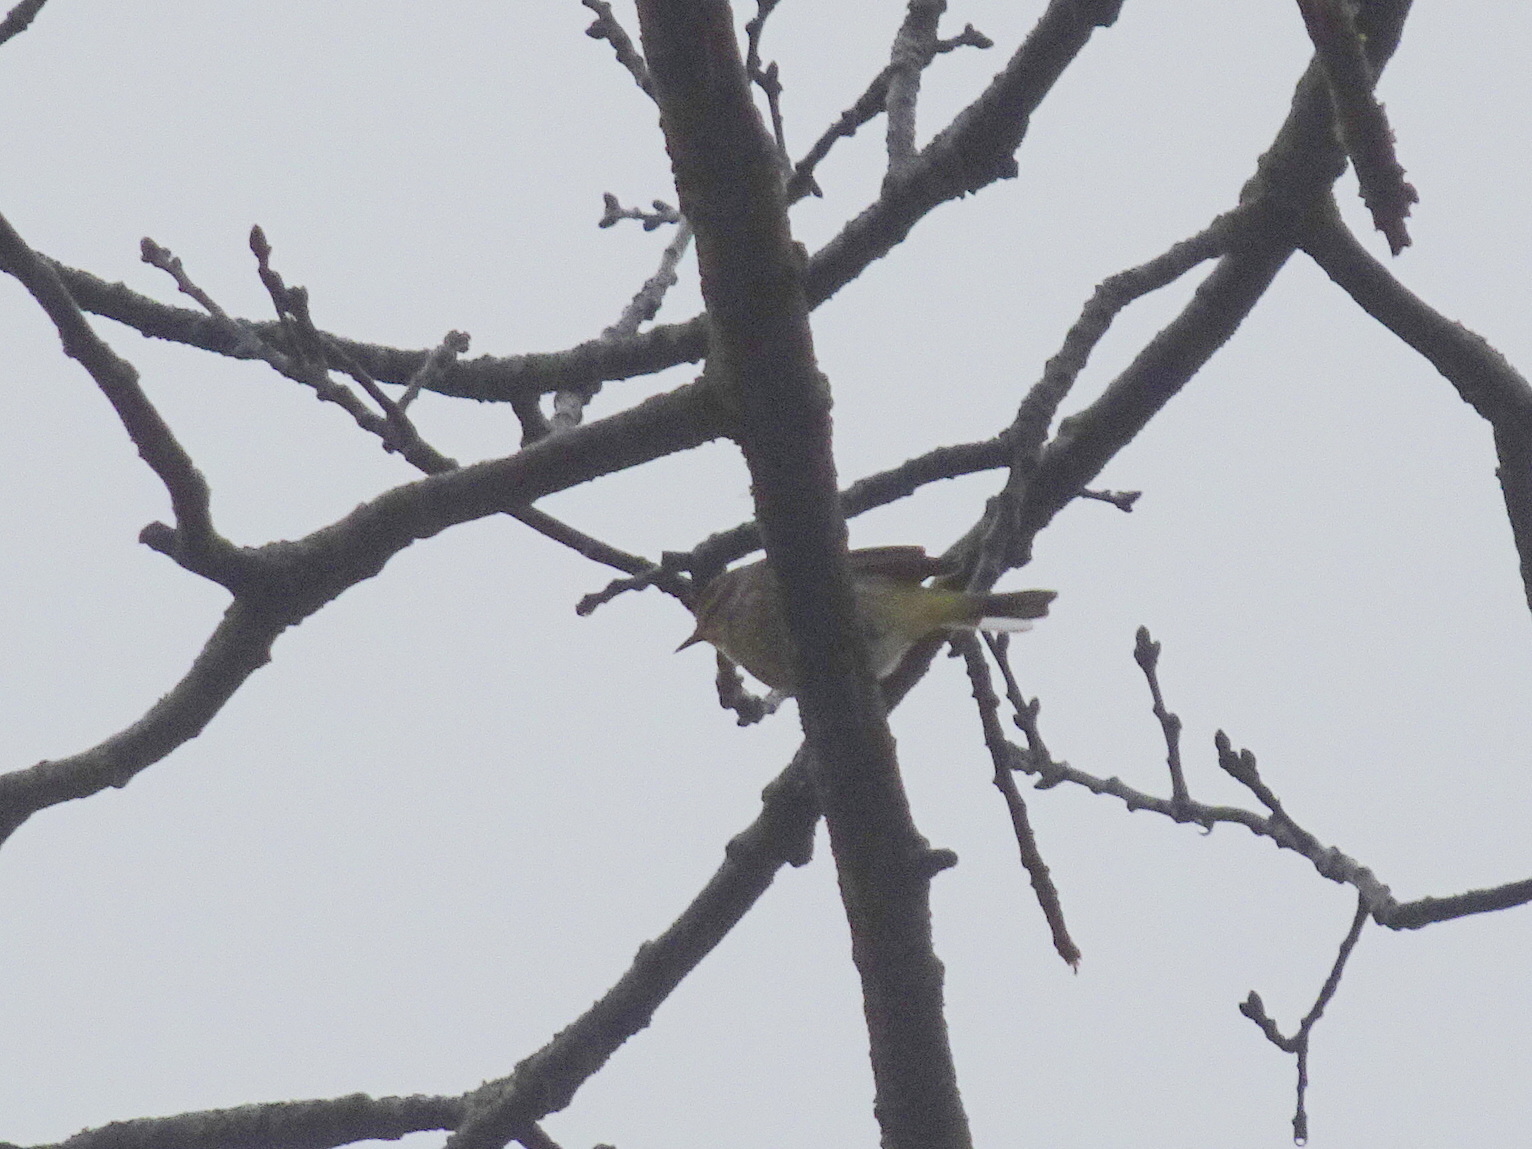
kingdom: Animalia
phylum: Chordata
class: Aves
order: Passeriformes
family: Parulidae
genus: Setophaga
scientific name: Setophaga palmarum
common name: Palm warbler
